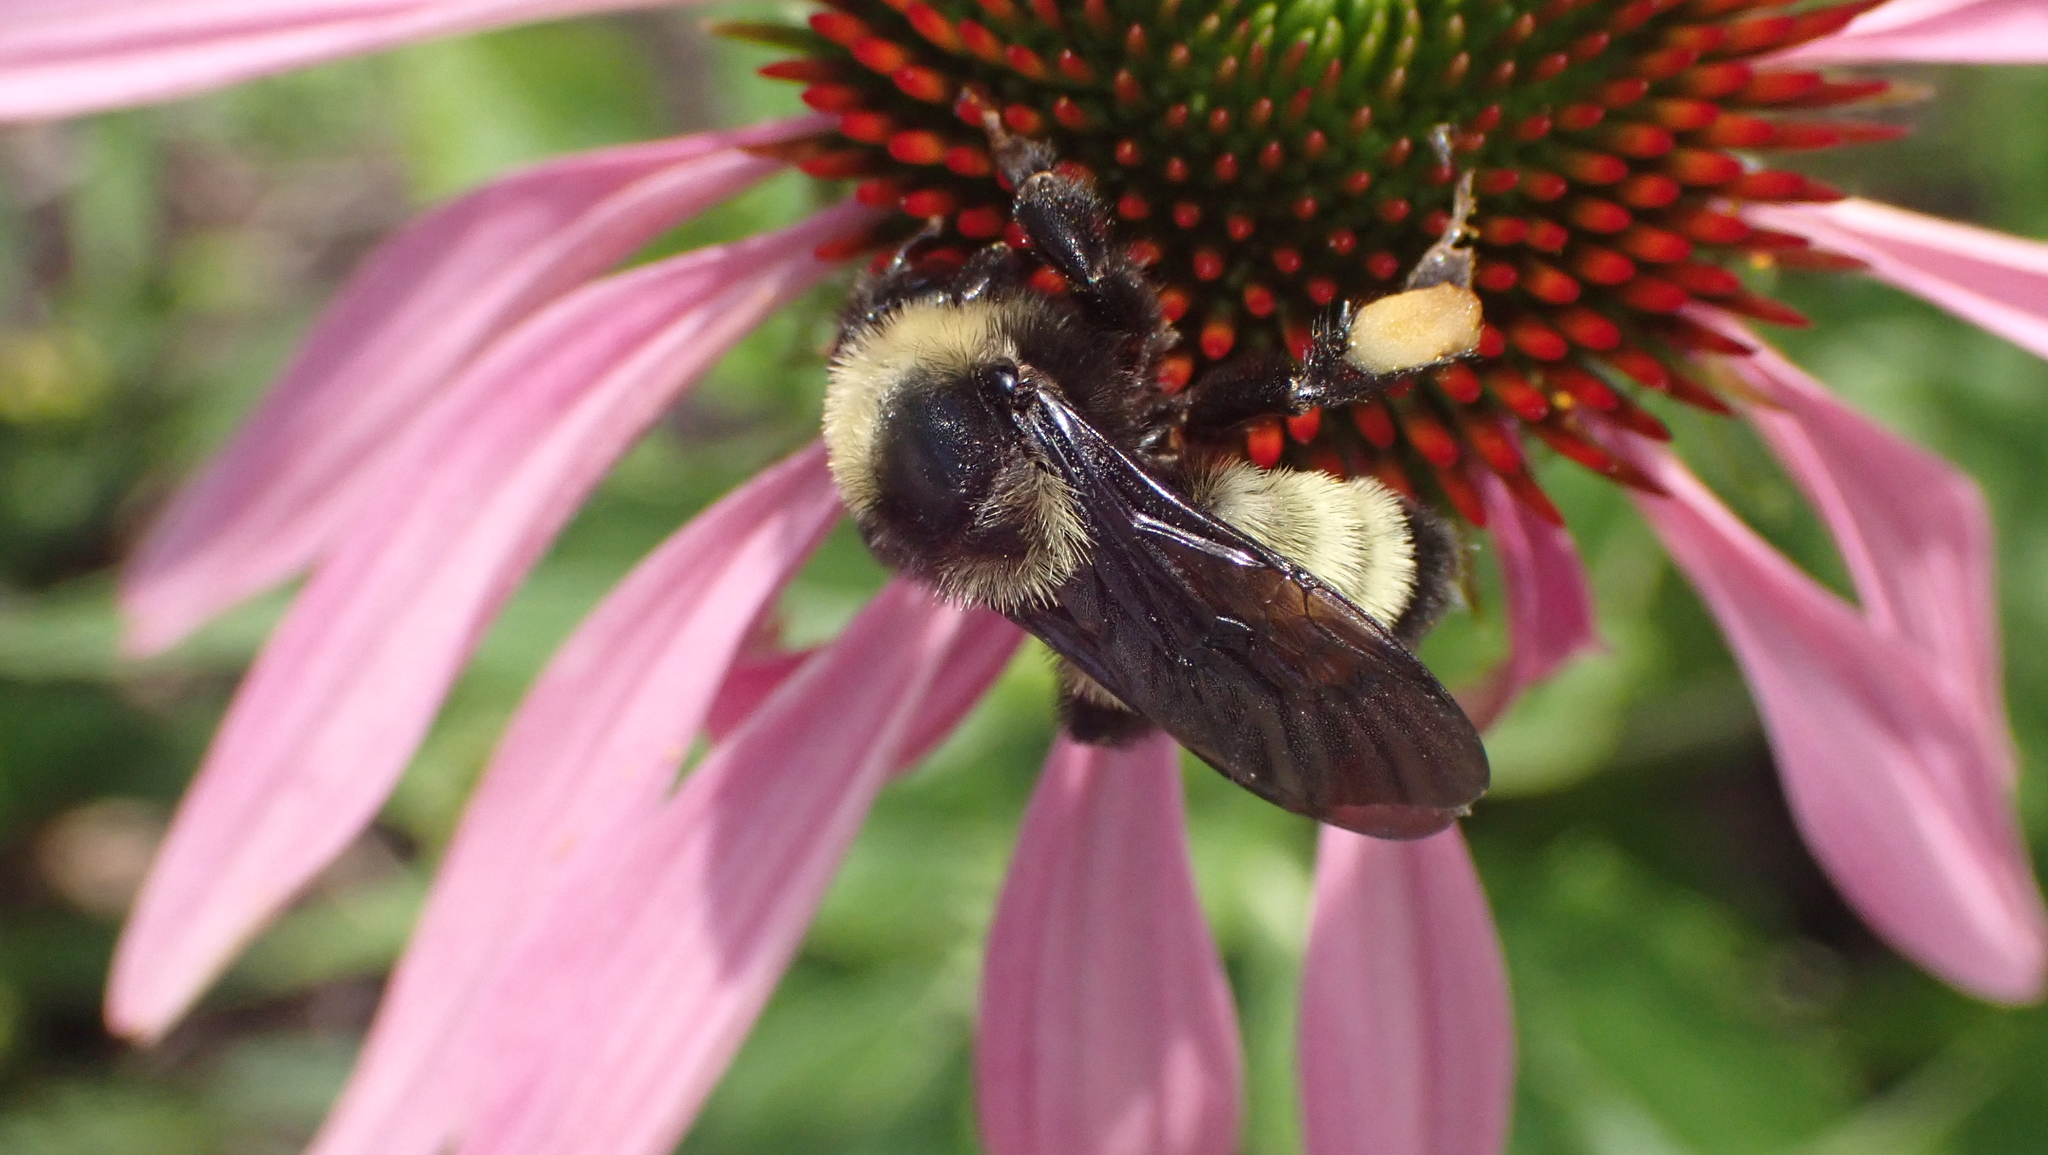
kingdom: Animalia
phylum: Arthropoda
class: Insecta
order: Hymenoptera
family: Apidae
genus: Bombus
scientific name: Bombus pensylvanicus
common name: Bumble bee
